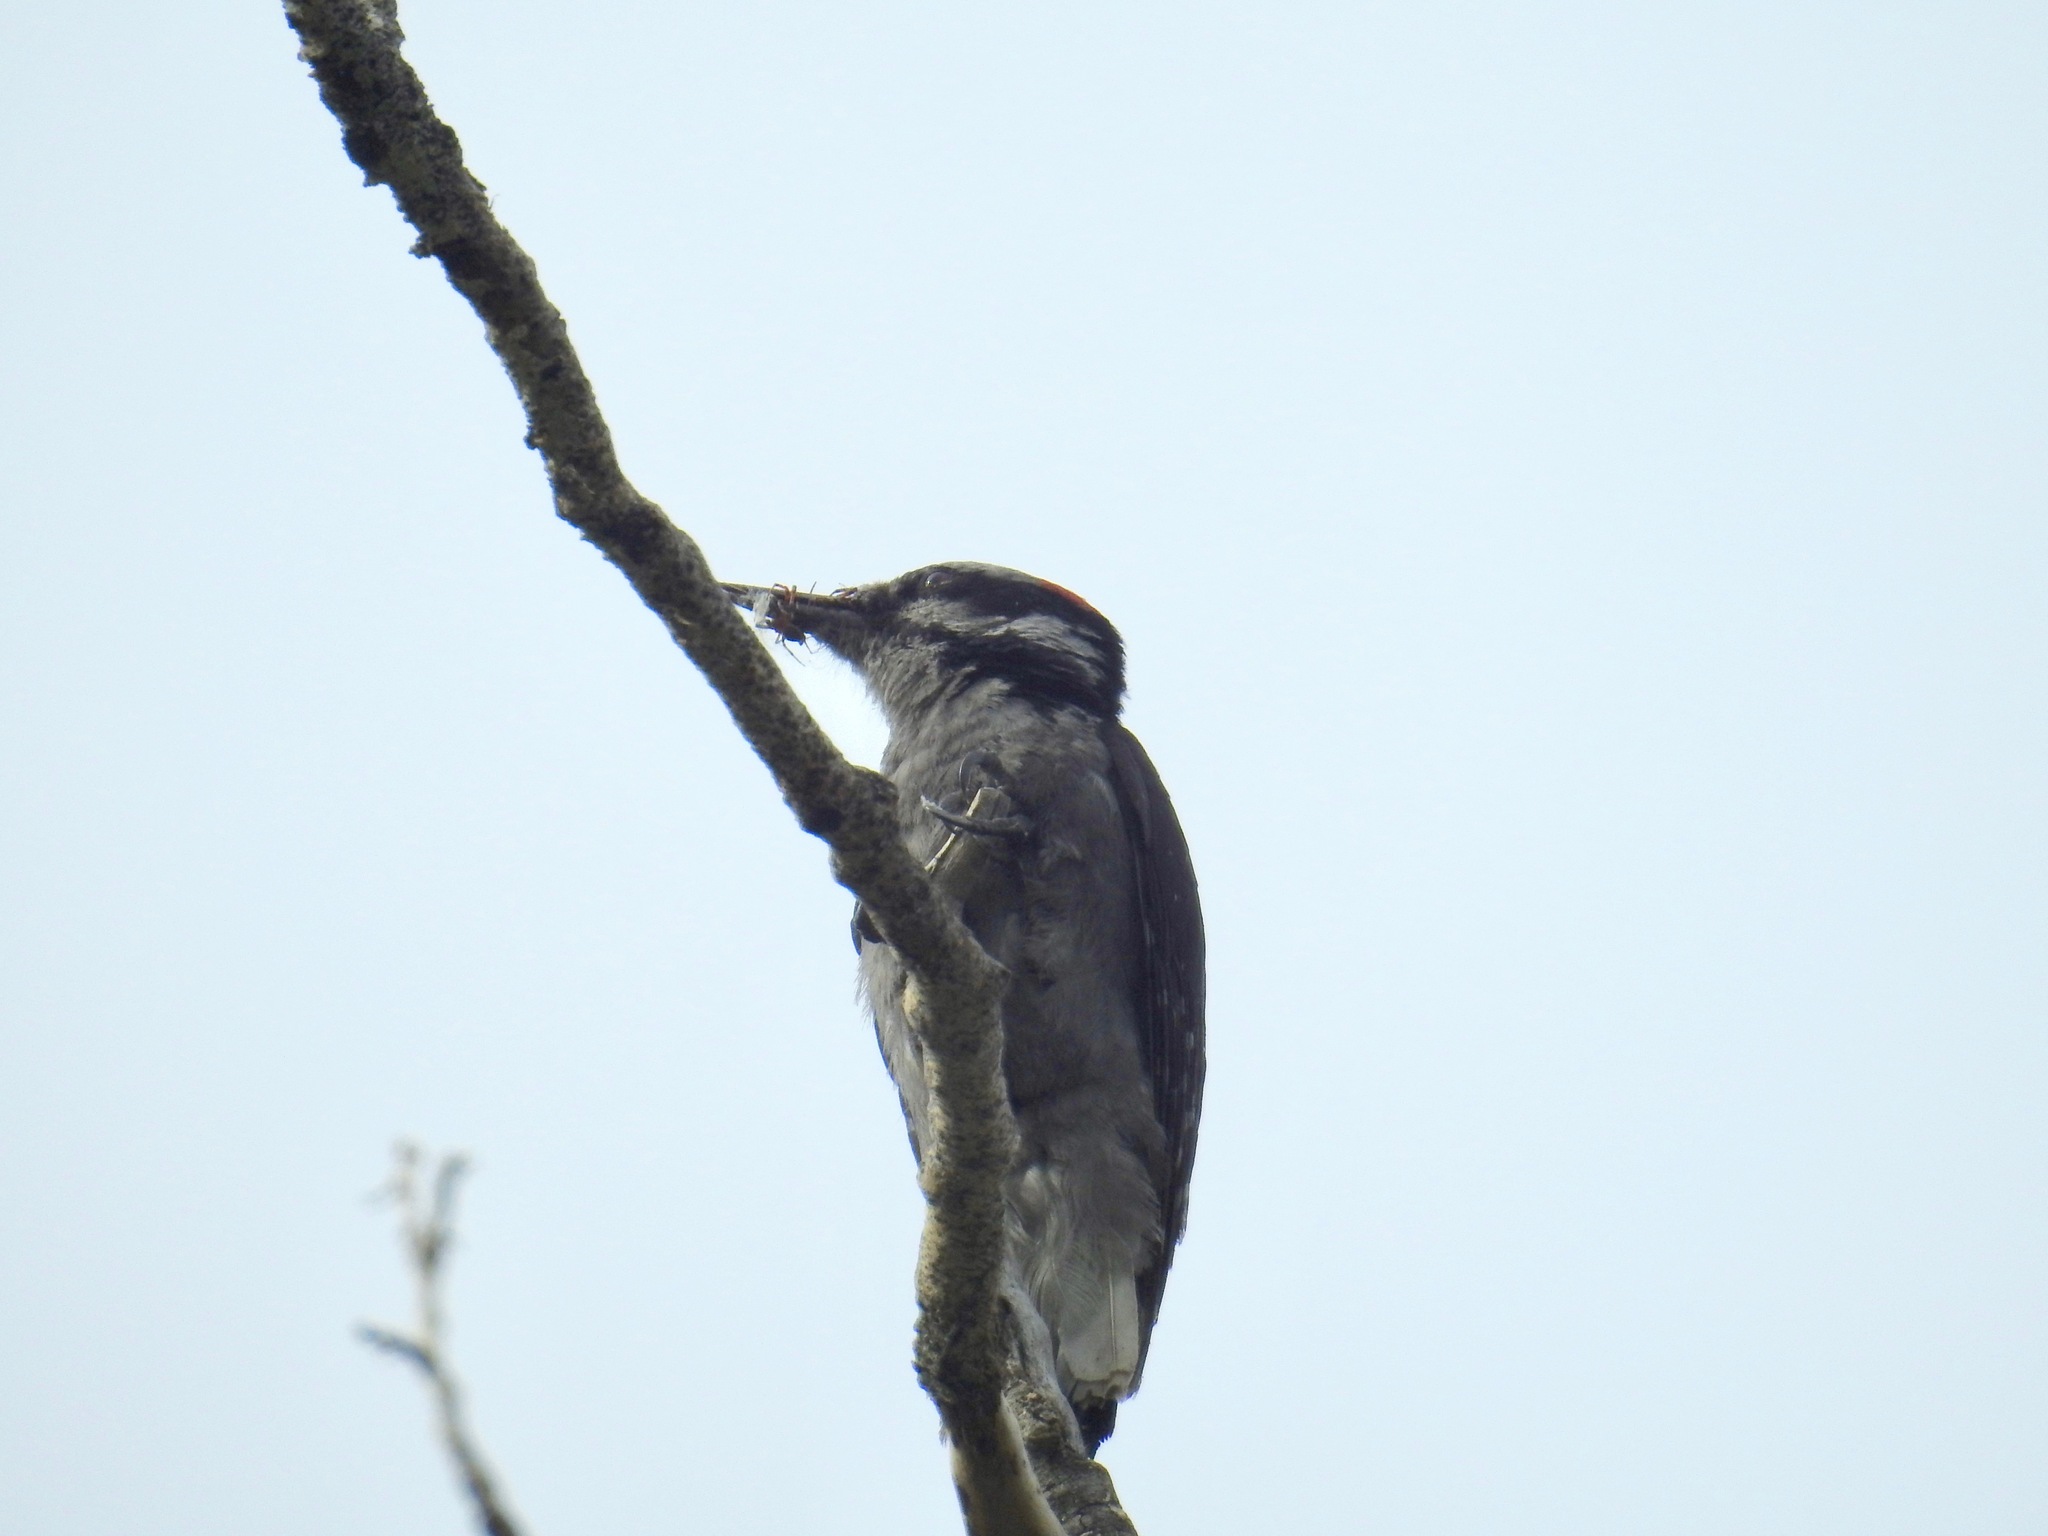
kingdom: Animalia
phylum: Chordata
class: Aves
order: Piciformes
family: Picidae
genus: Leuconotopicus
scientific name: Leuconotopicus villosus
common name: Hairy woodpecker
